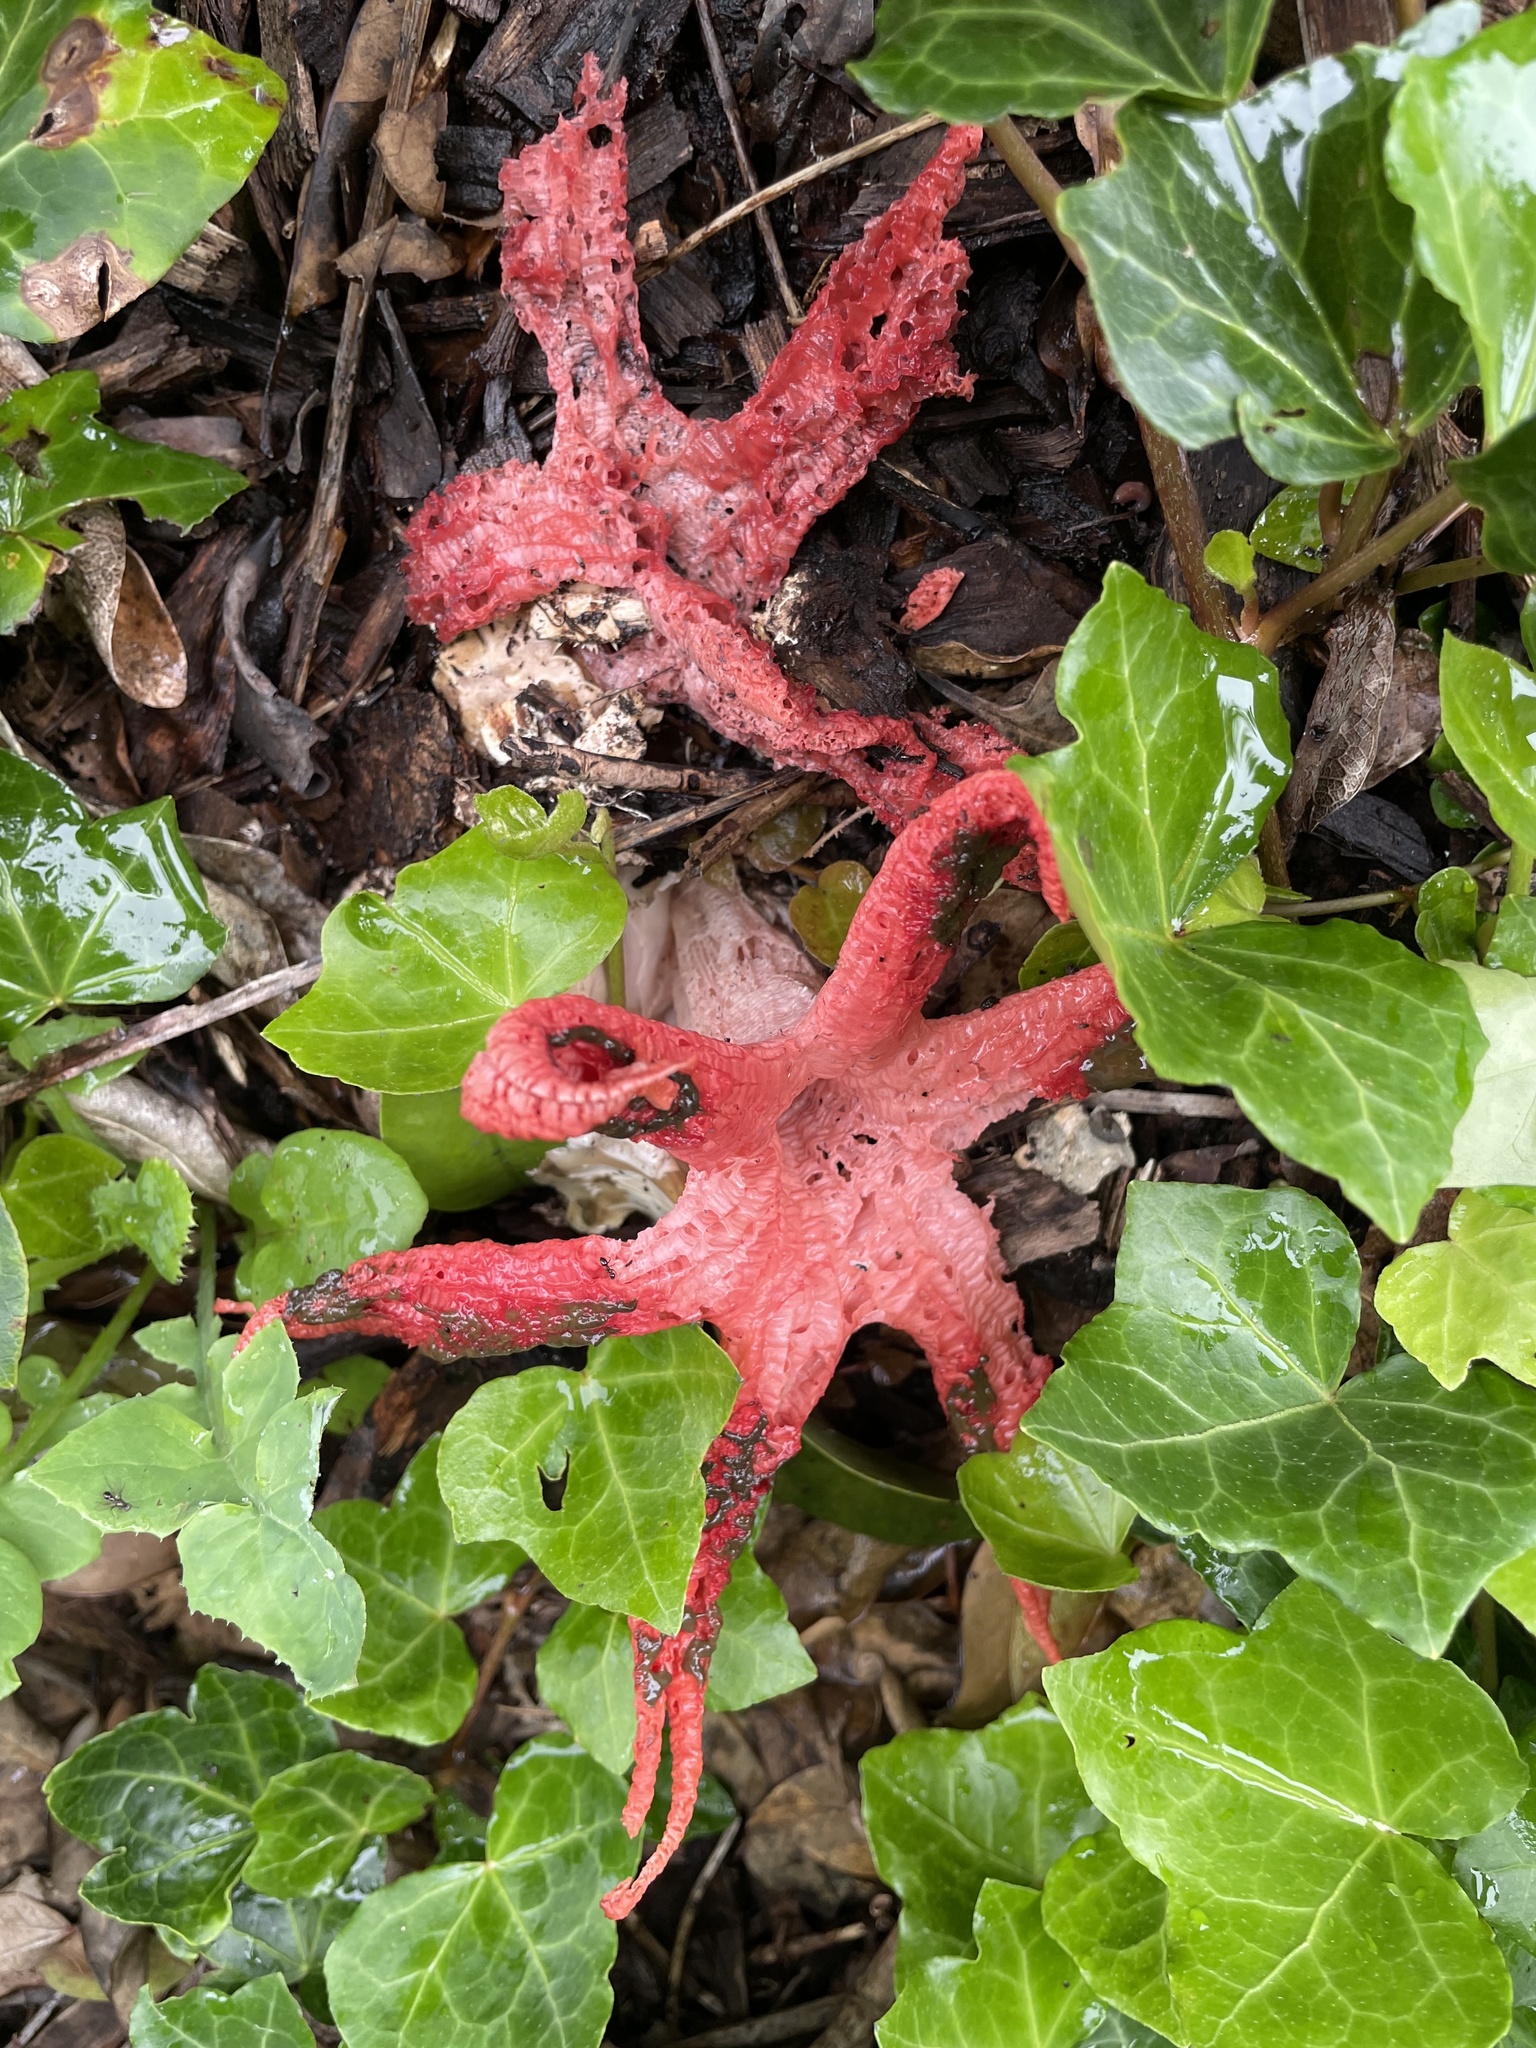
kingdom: Fungi
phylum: Basidiomycota
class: Agaricomycetes
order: Phallales
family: Phallaceae
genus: Clathrus
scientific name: Clathrus archeri
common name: Devil's fingers
